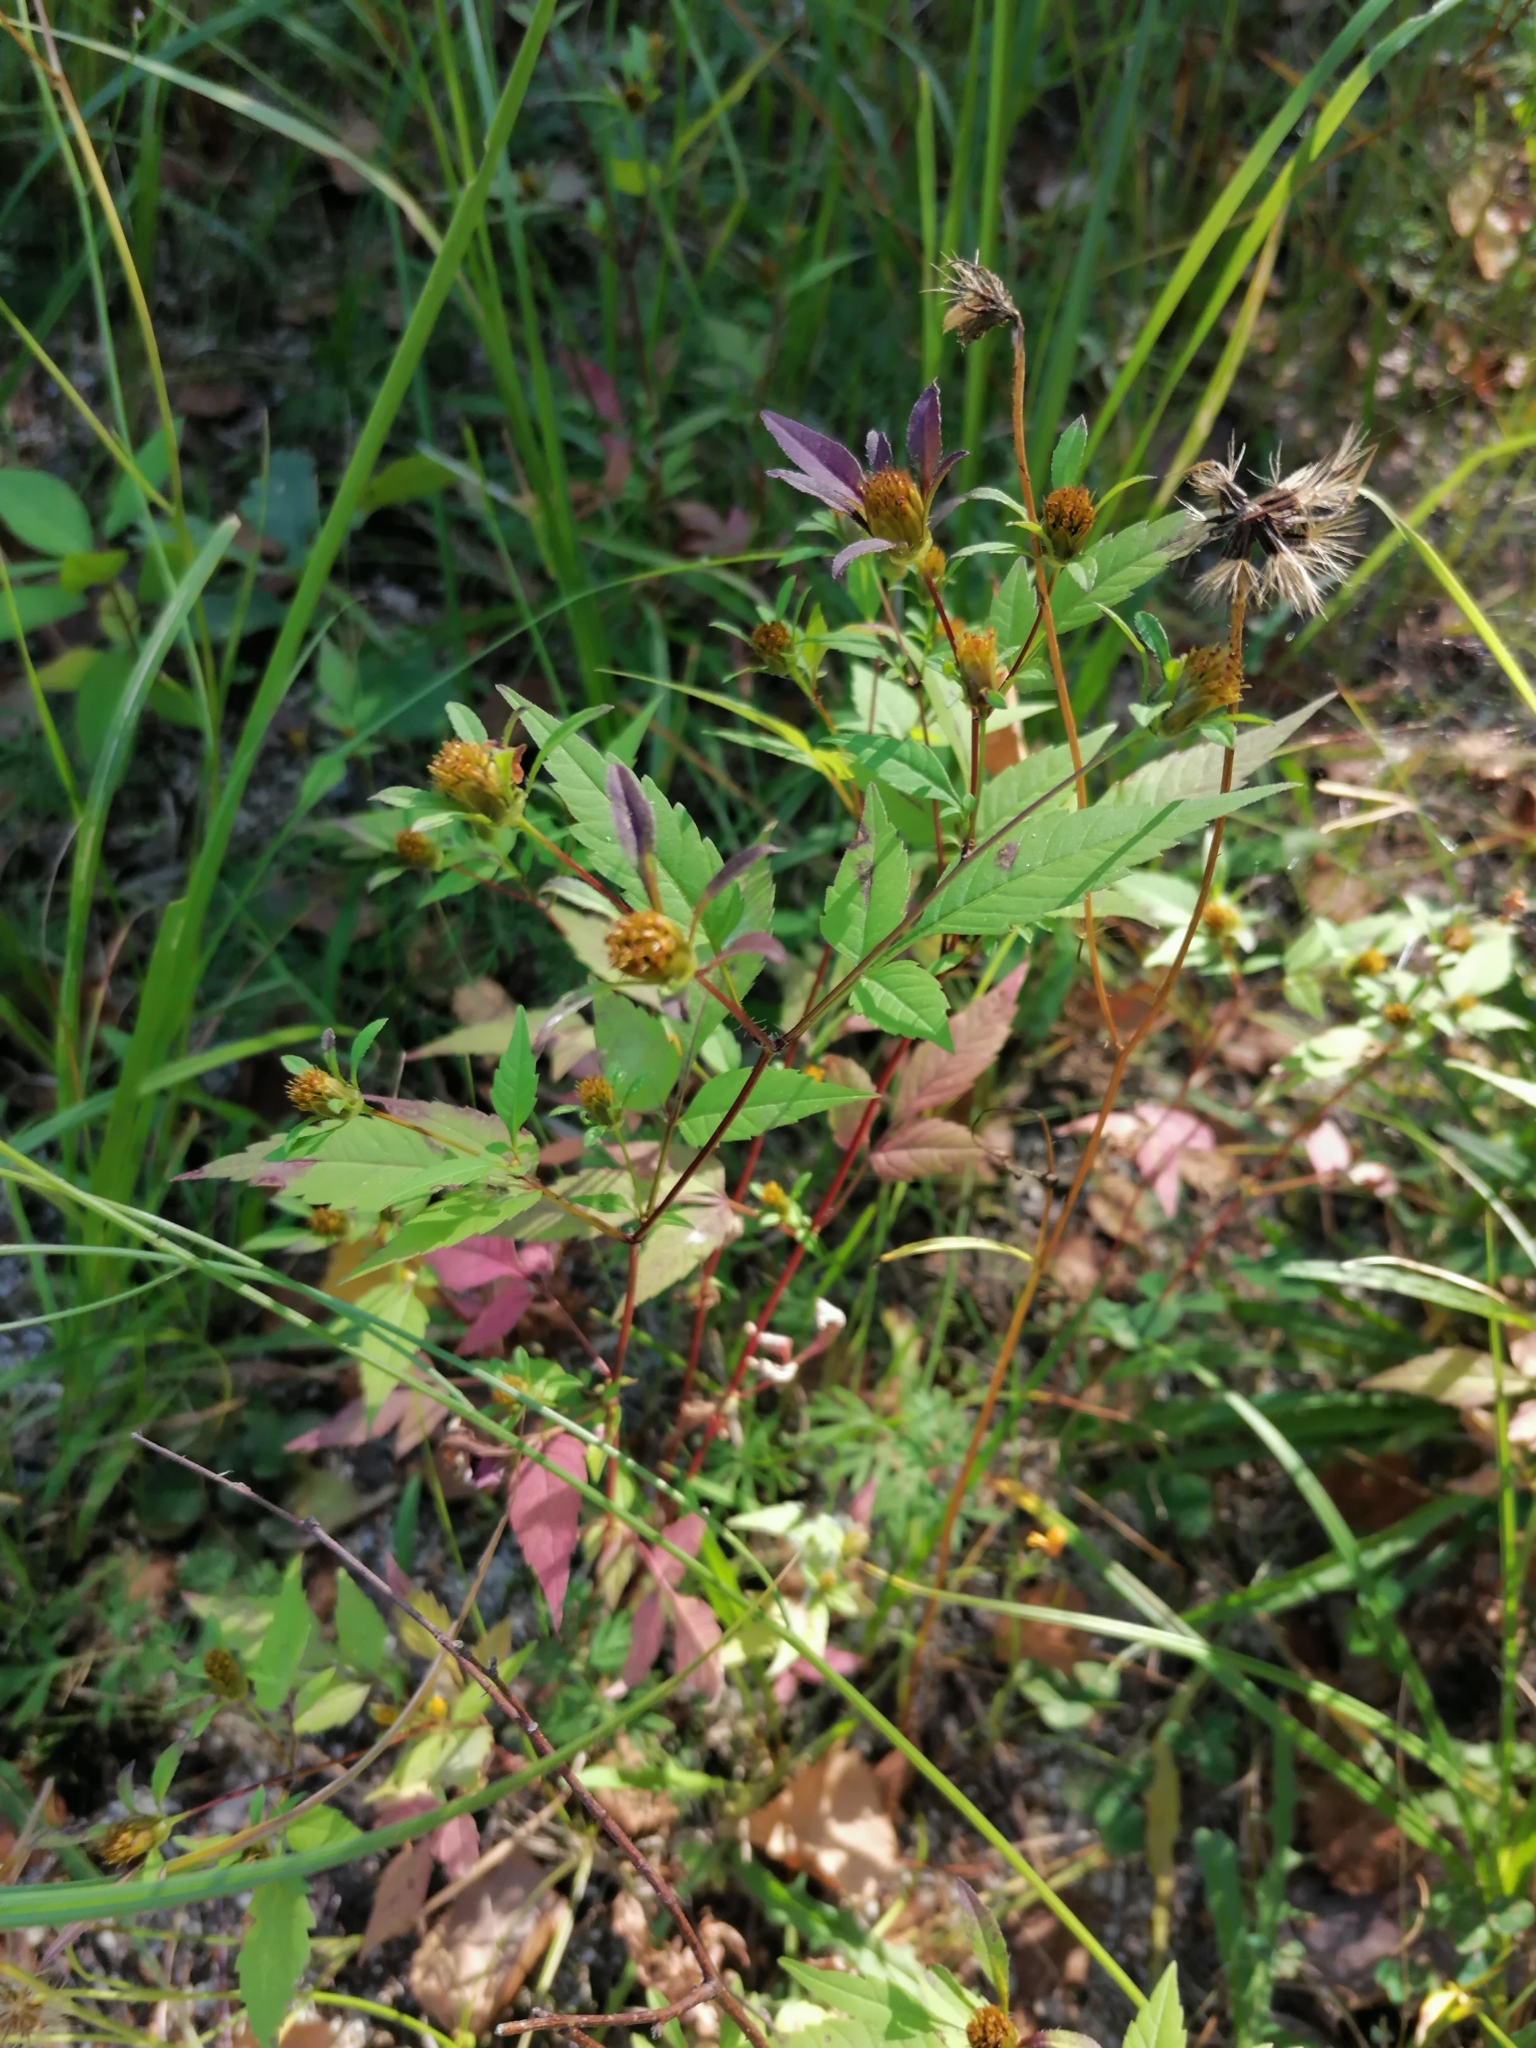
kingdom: Plantae
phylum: Tracheophyta
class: Magnoliopsida
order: Asterales
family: Asteraceae
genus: Bidens
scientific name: Bidens frondosa
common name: Beggarticks
